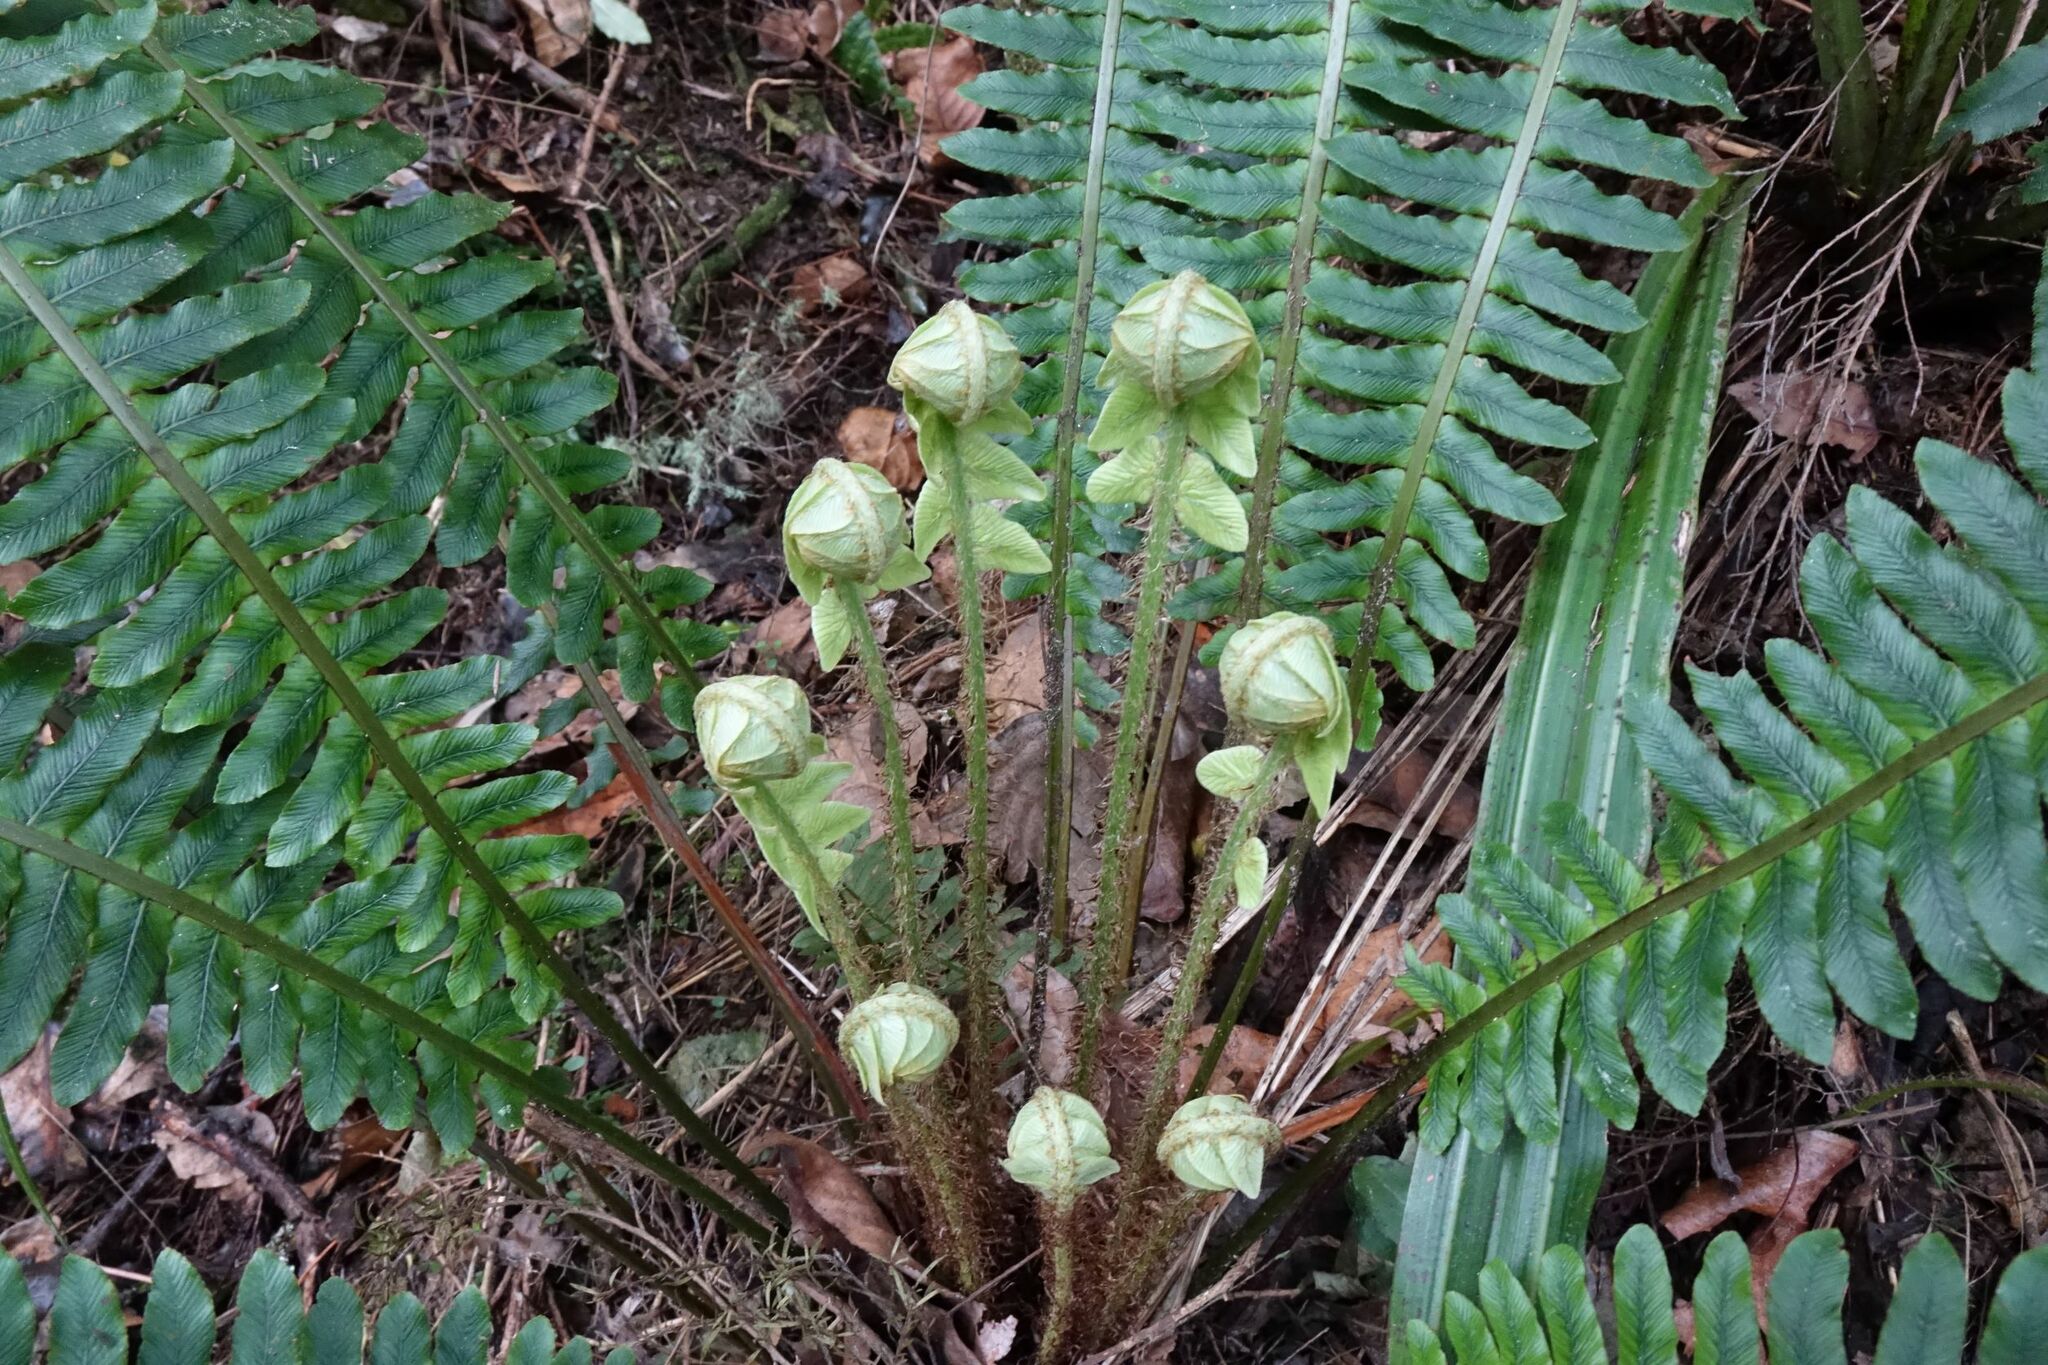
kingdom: Plantae
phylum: Tracheophyta
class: Polypodiopsida
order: Polypodiales
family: Blechnaceae
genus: Lomaria
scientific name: Lomaria discolor
